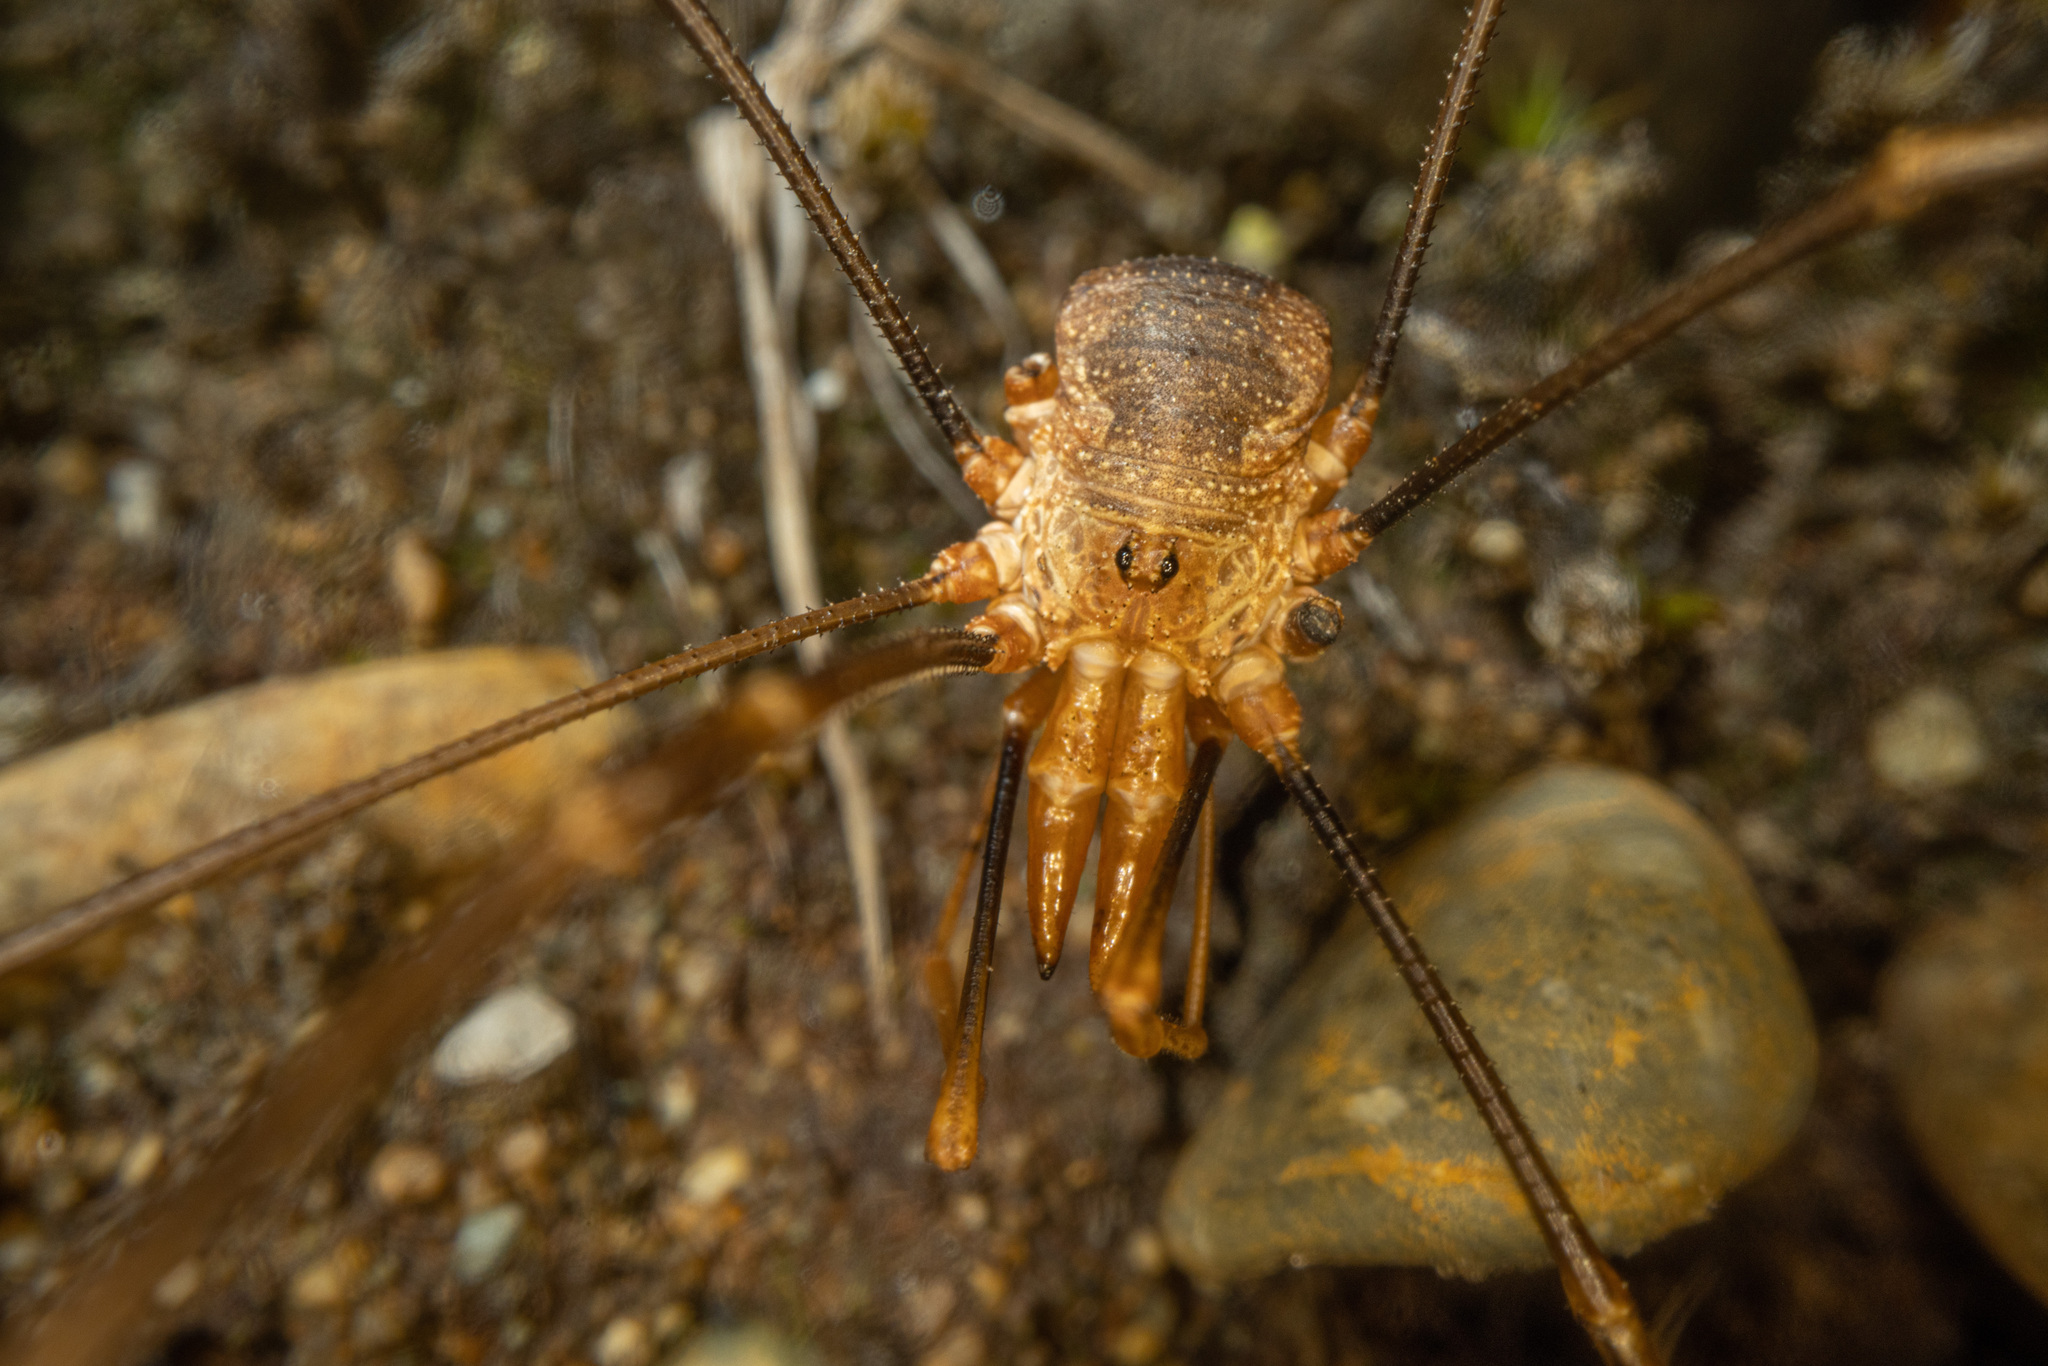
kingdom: Animalia
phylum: Arthropoda
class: Arachnida
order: Opiliones
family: Phalangiidae
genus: Phalangium
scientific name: Phalangium opilio
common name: Daddy longleg
